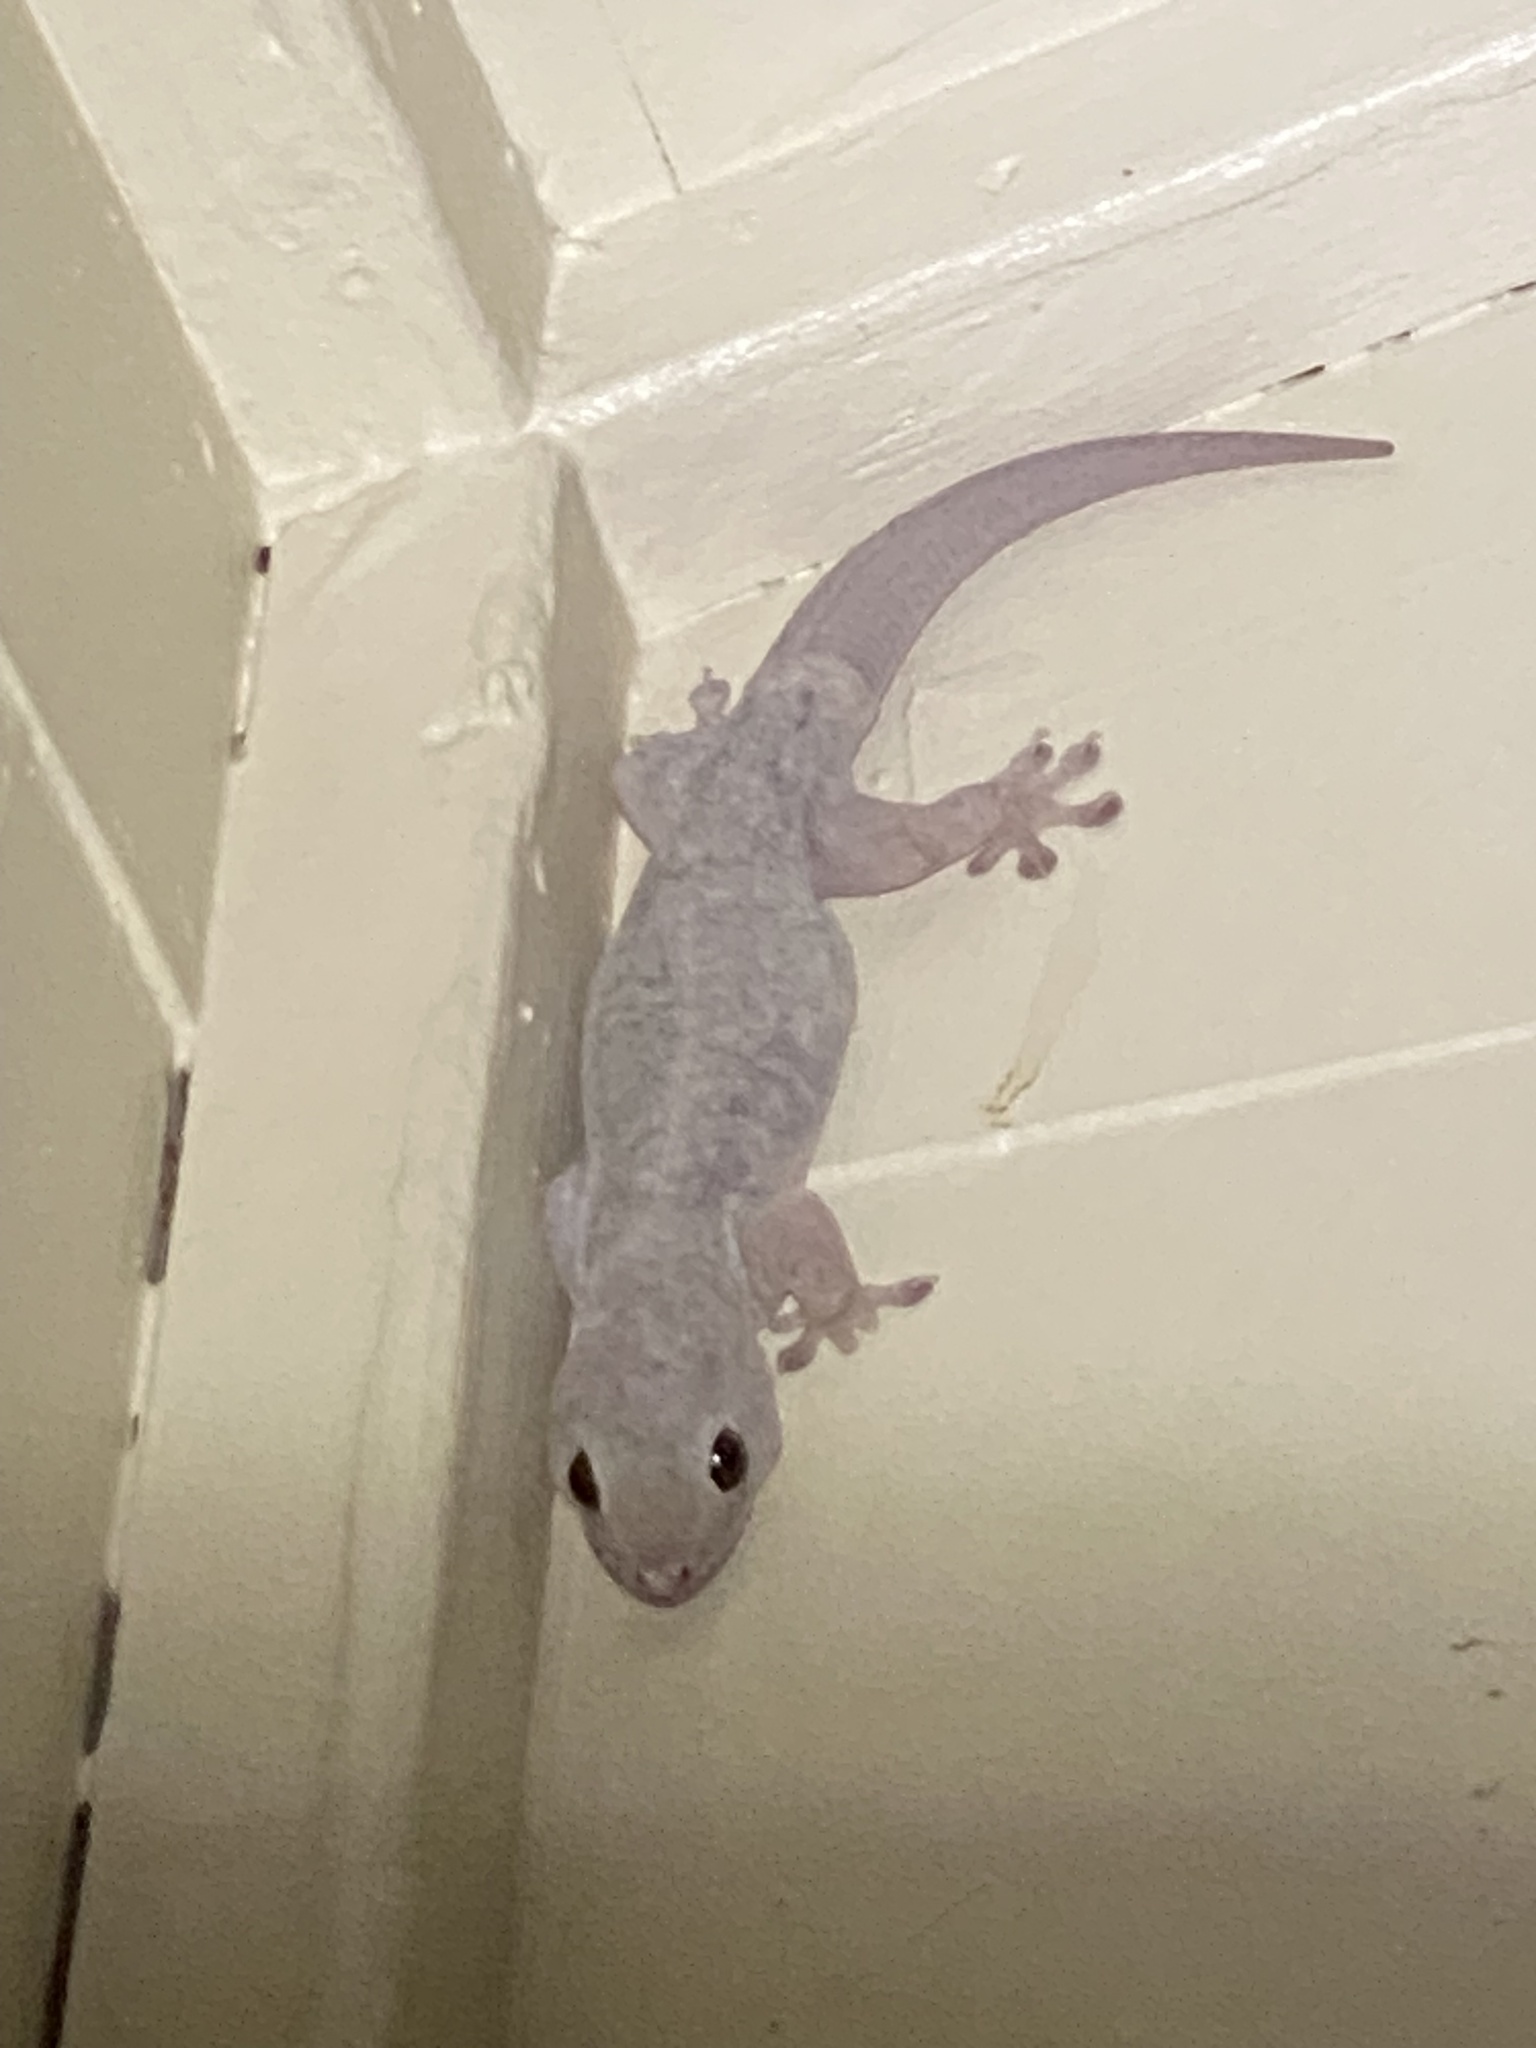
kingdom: Animalia
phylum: Chordata
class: Squamata
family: Gekkonidae
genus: Gehyra
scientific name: Gehyra dubia
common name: Dubious dtella
